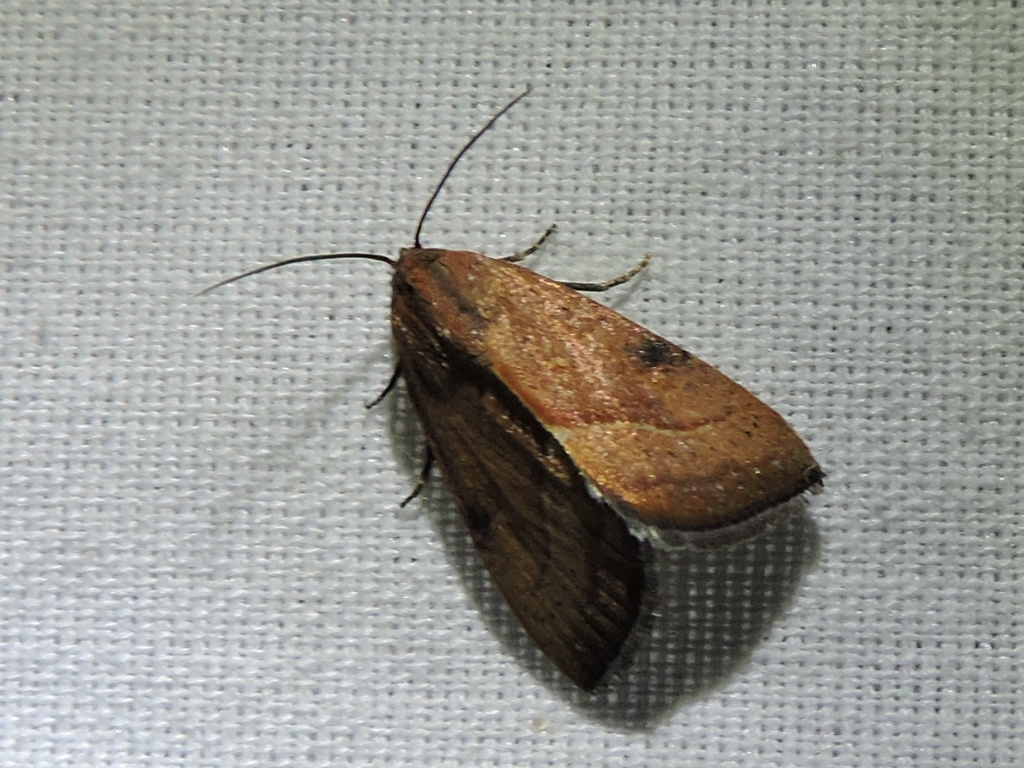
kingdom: Animalia
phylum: Arthropoda
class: Insecta
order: Lepidoptera
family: Noctuidae
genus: Galgula
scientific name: Galgula partita
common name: Wedgeling
